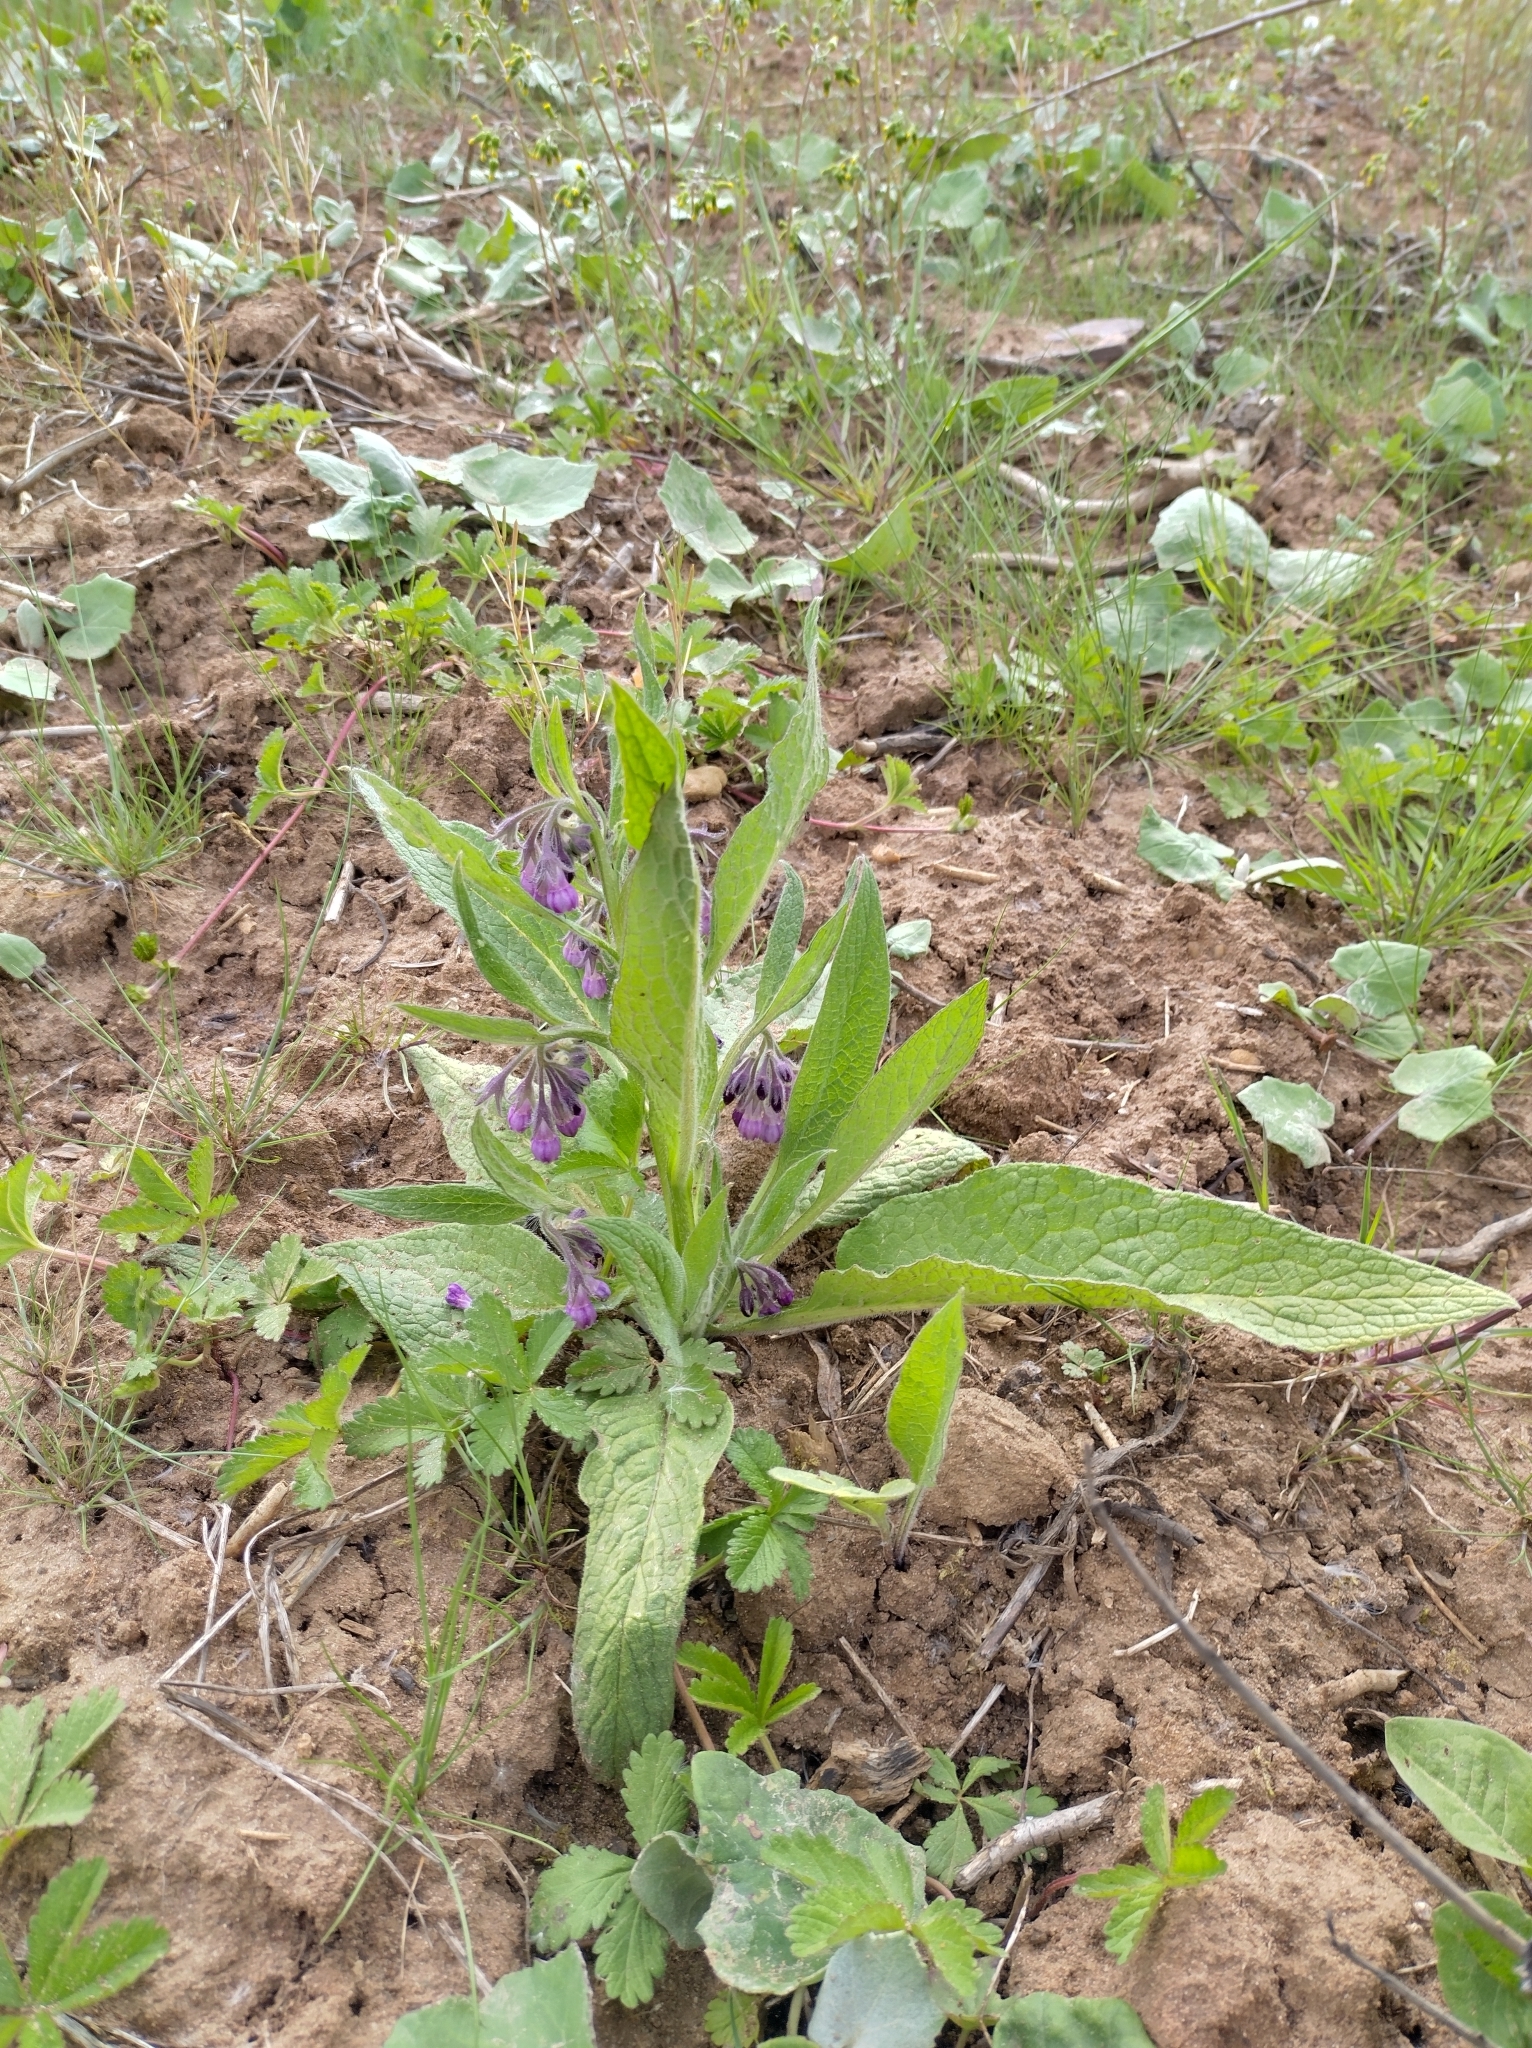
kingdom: Plantae
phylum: Tracheophyta
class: Magnoliopsida
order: Boraginales
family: Boraginaceae
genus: Symphytum
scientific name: Symphytum officinale
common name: Common comfrey
